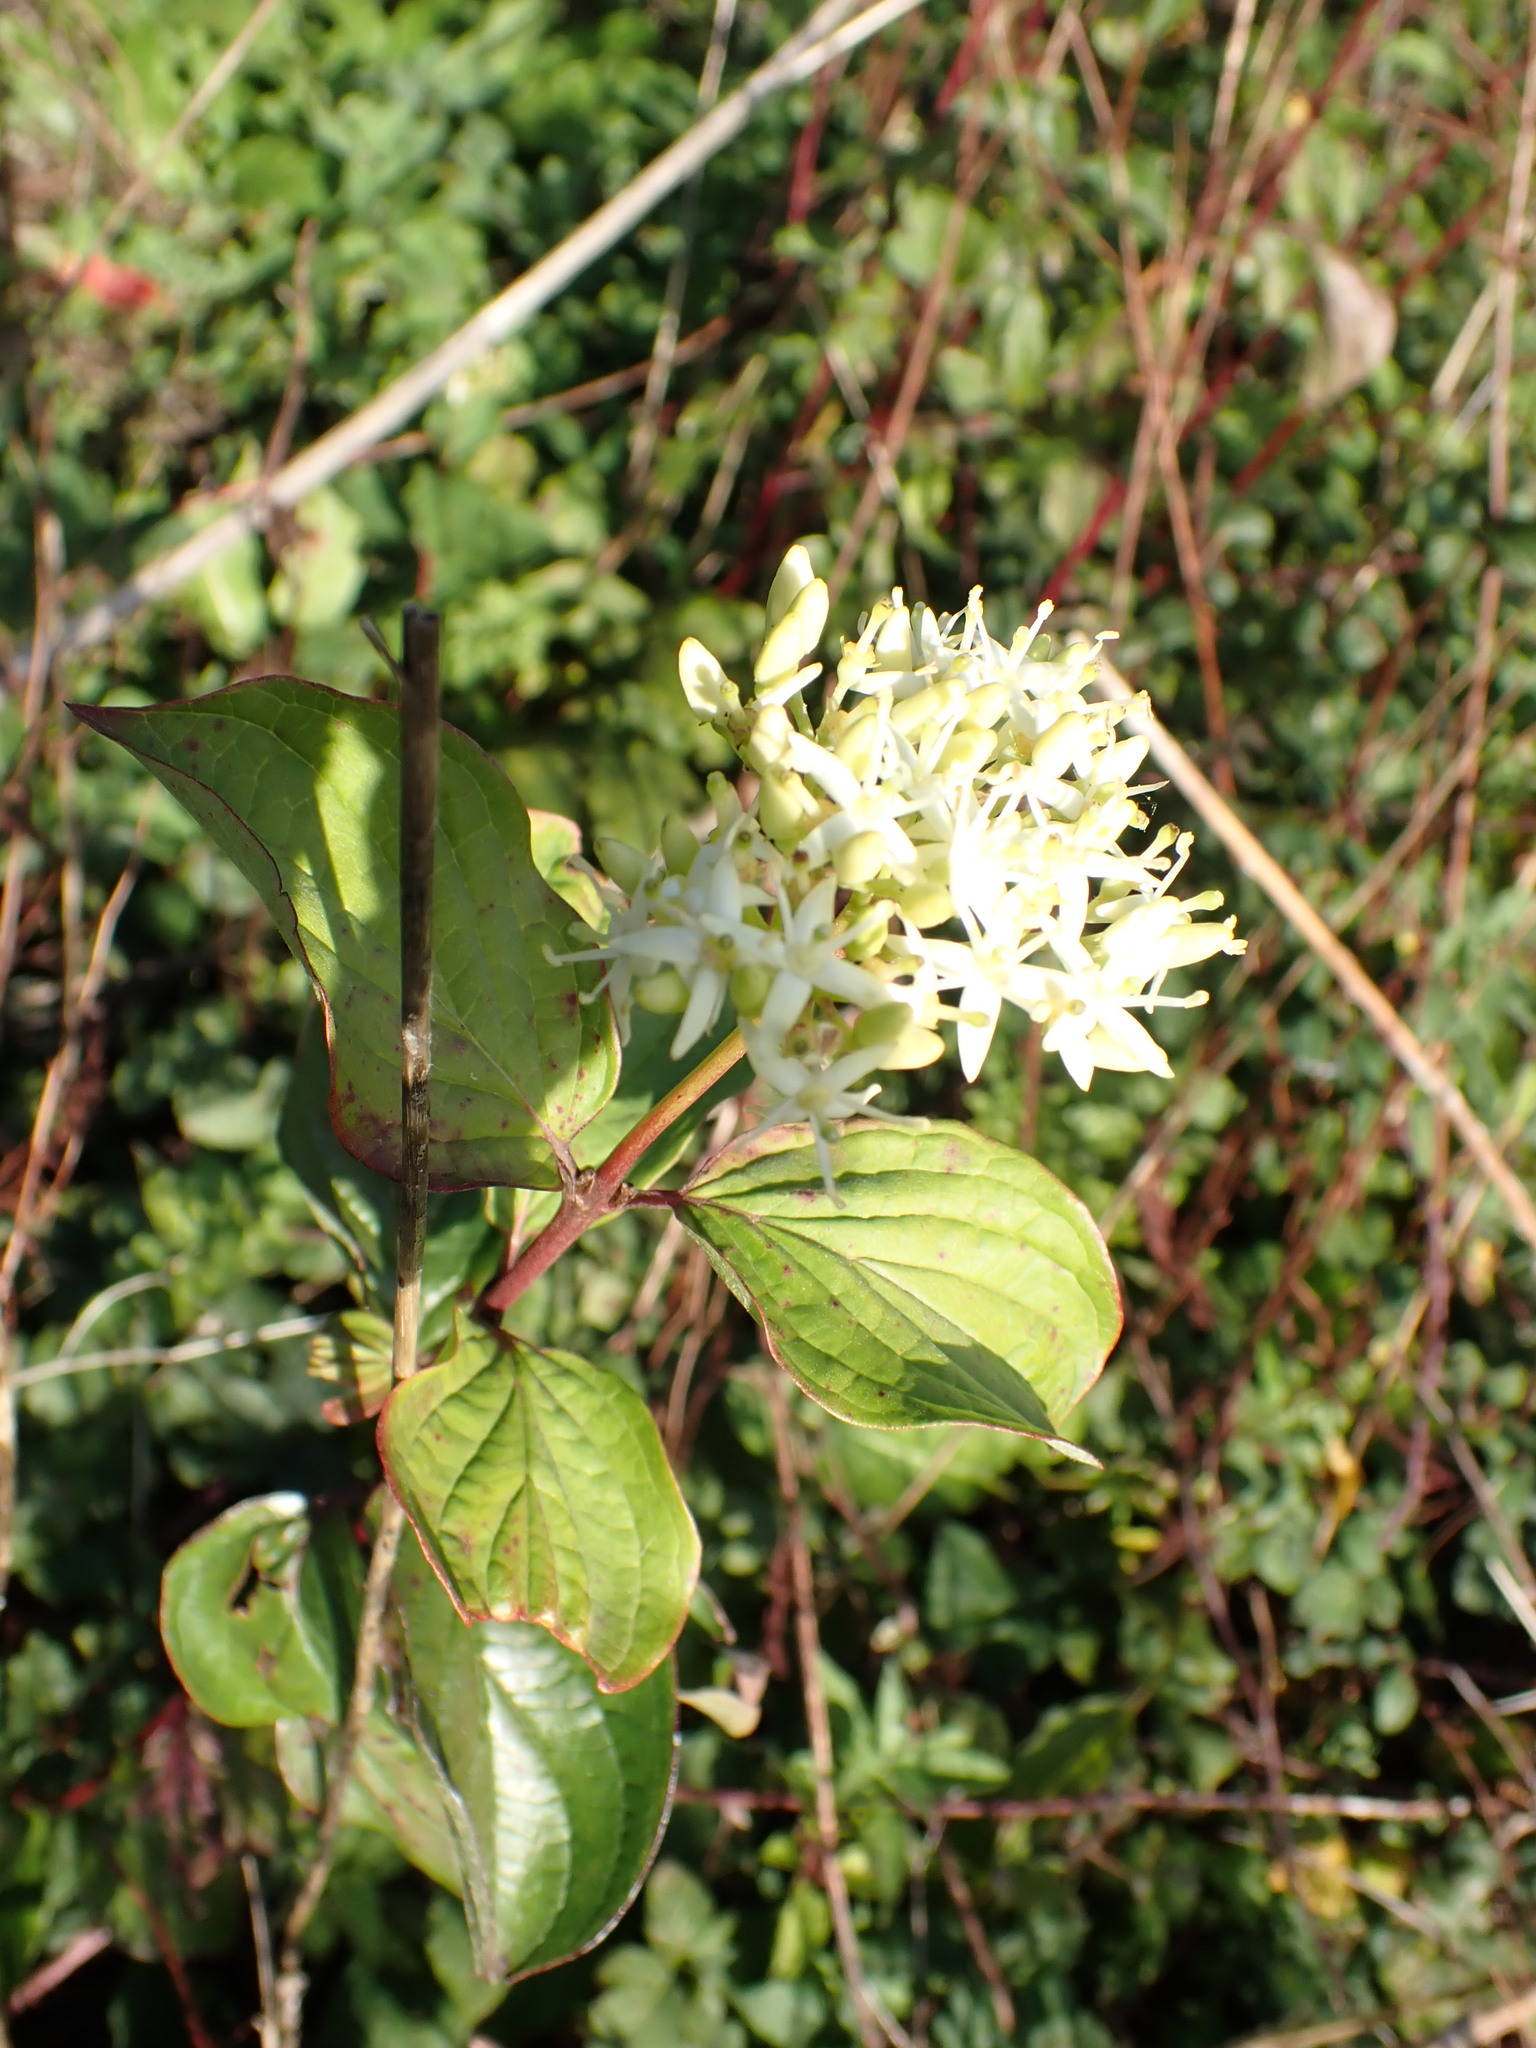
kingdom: Plantae
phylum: Tracheophyta
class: Magnoliopsida
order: Cornales
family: Cornaceae
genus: Cornus
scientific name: Cornus sanguinea
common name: Dogwood
